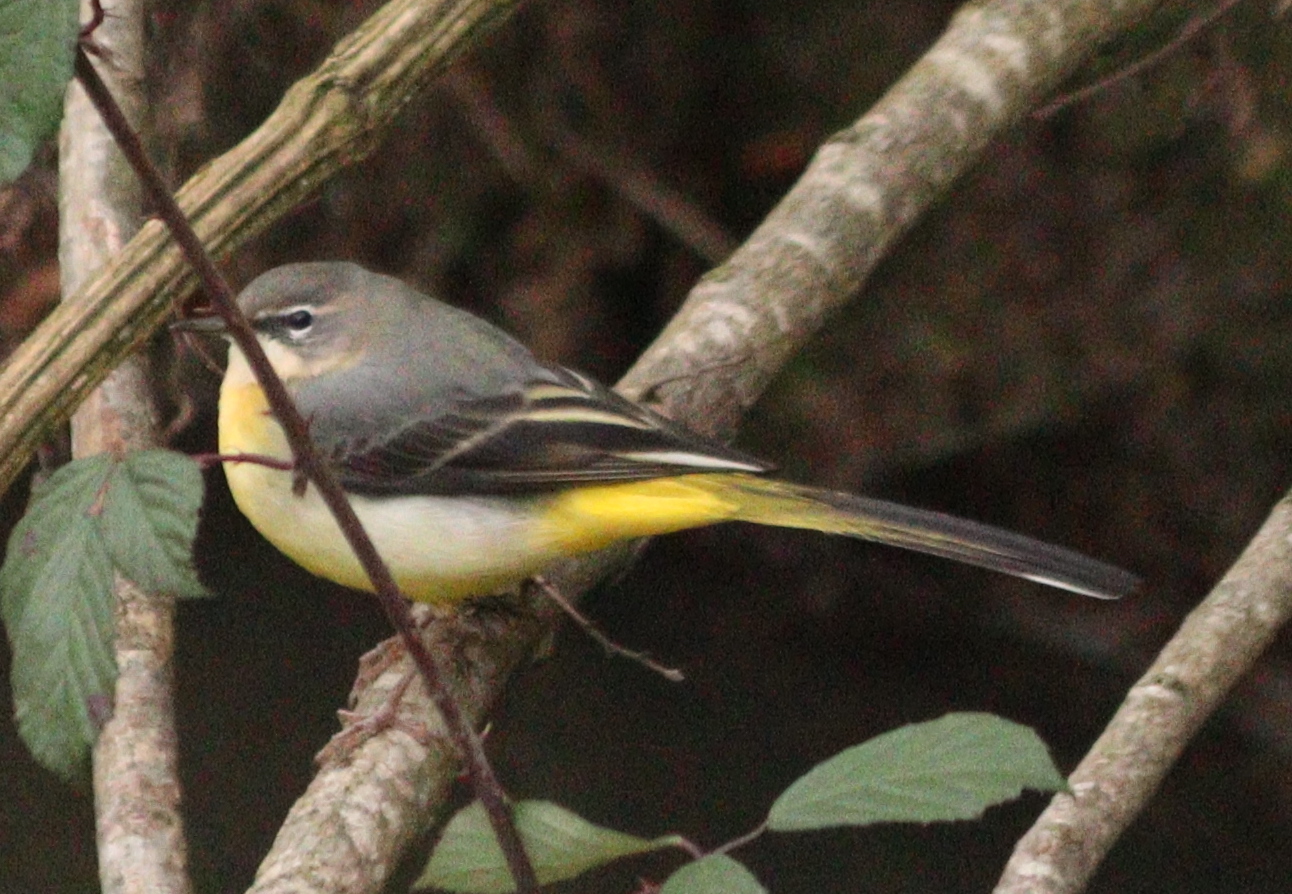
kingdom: Animalia
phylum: Chordata
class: Aves
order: Passeriformes
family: Motacillidae
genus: Motacilla
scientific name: Motacilla cinerea
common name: Grey wagtail
